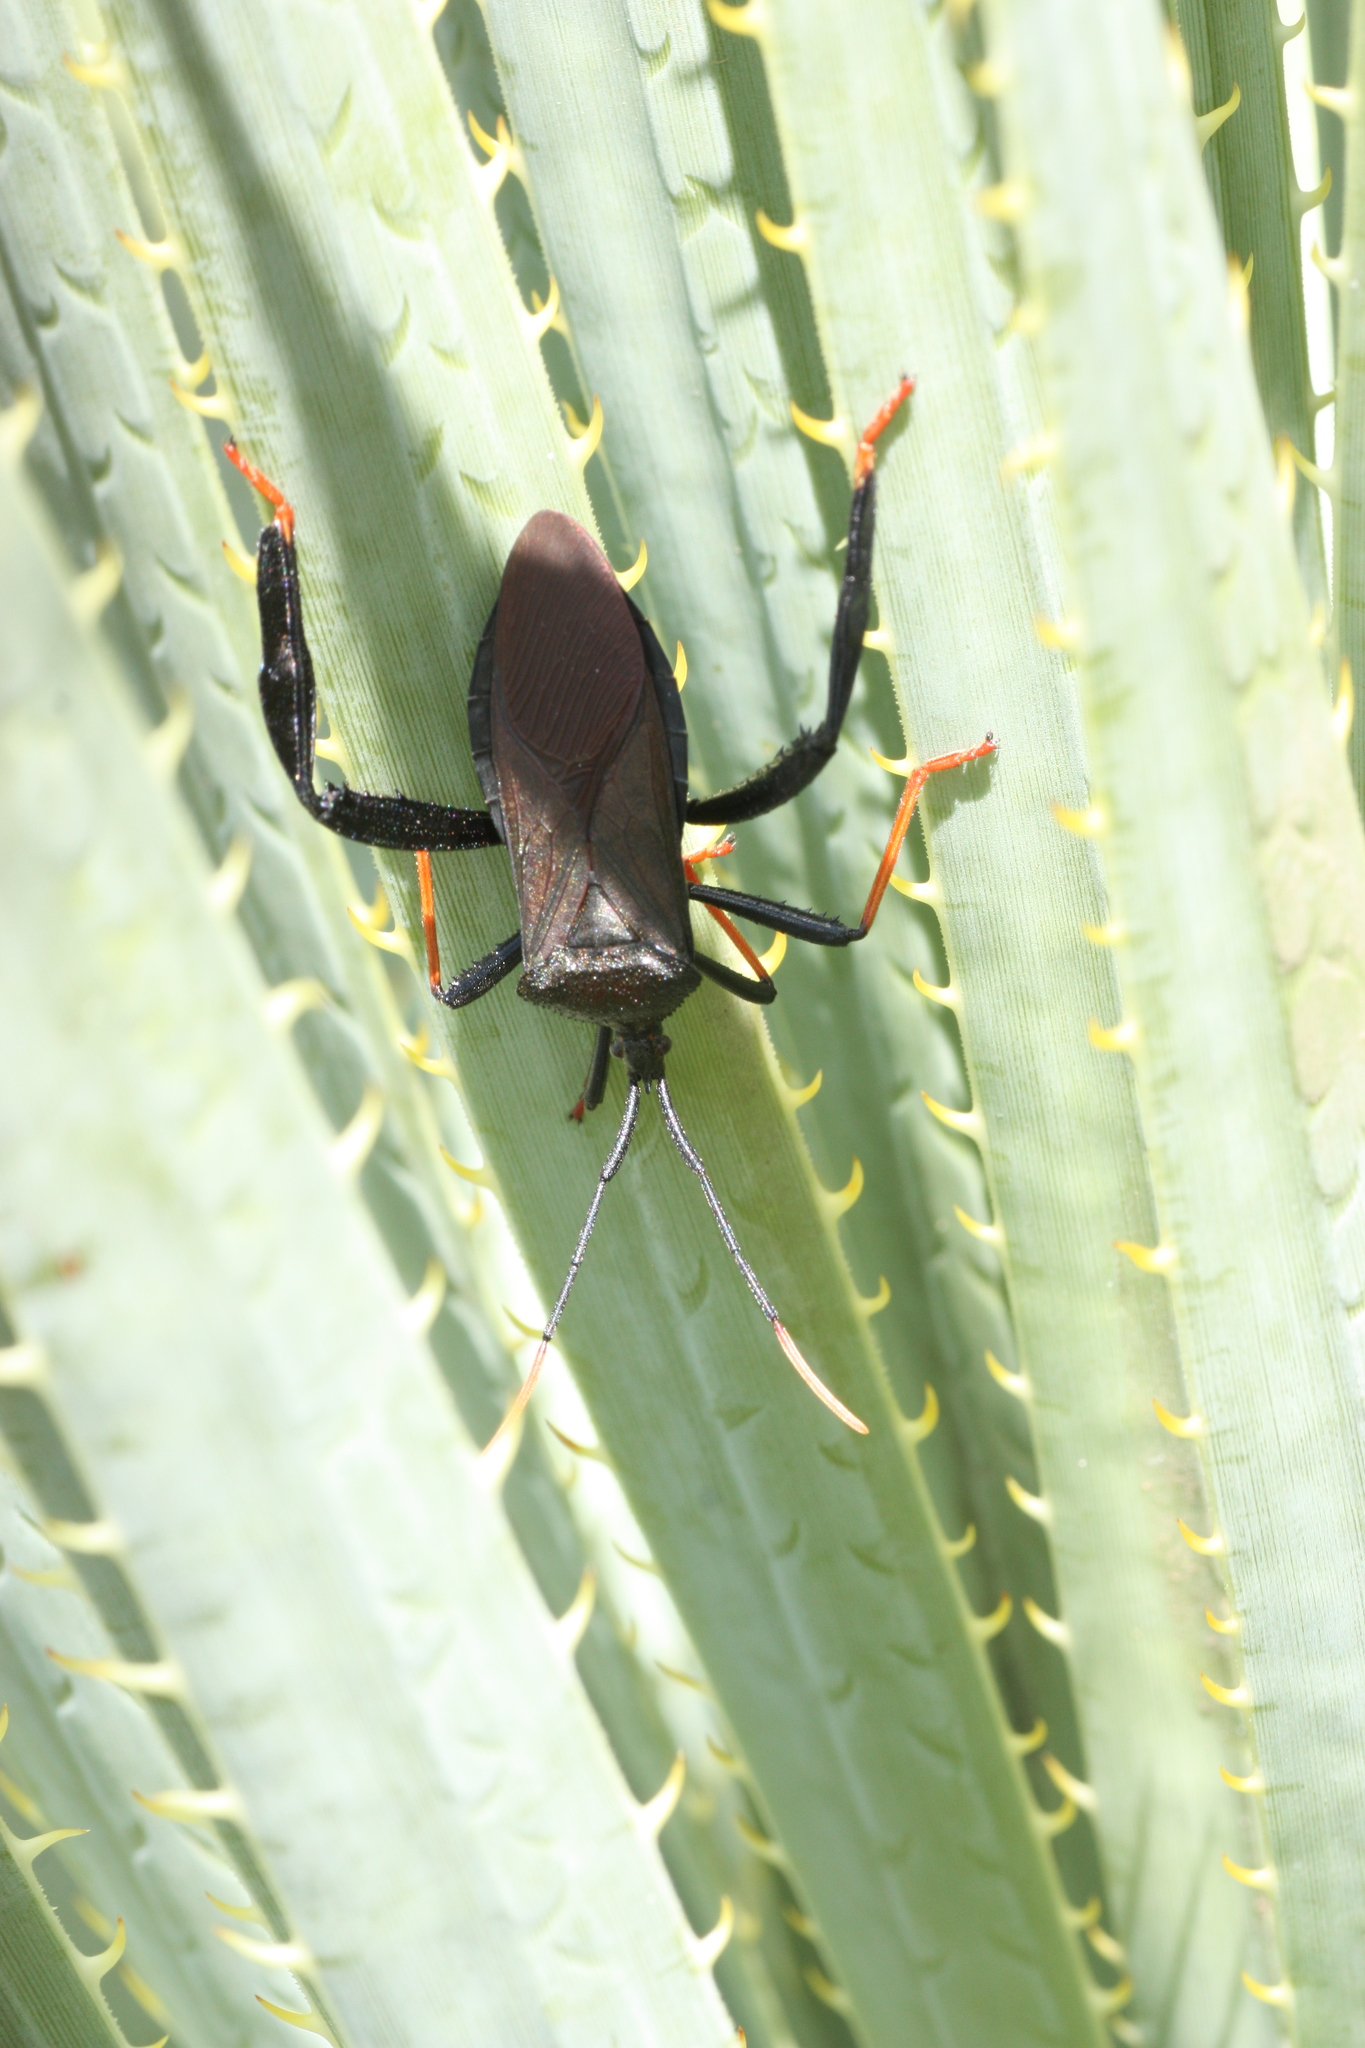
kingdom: Animalia
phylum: Arthropoda
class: Insecta
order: Hemiptera
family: Coreidae
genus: Acanthocephala
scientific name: Acanthocephala thomasi
